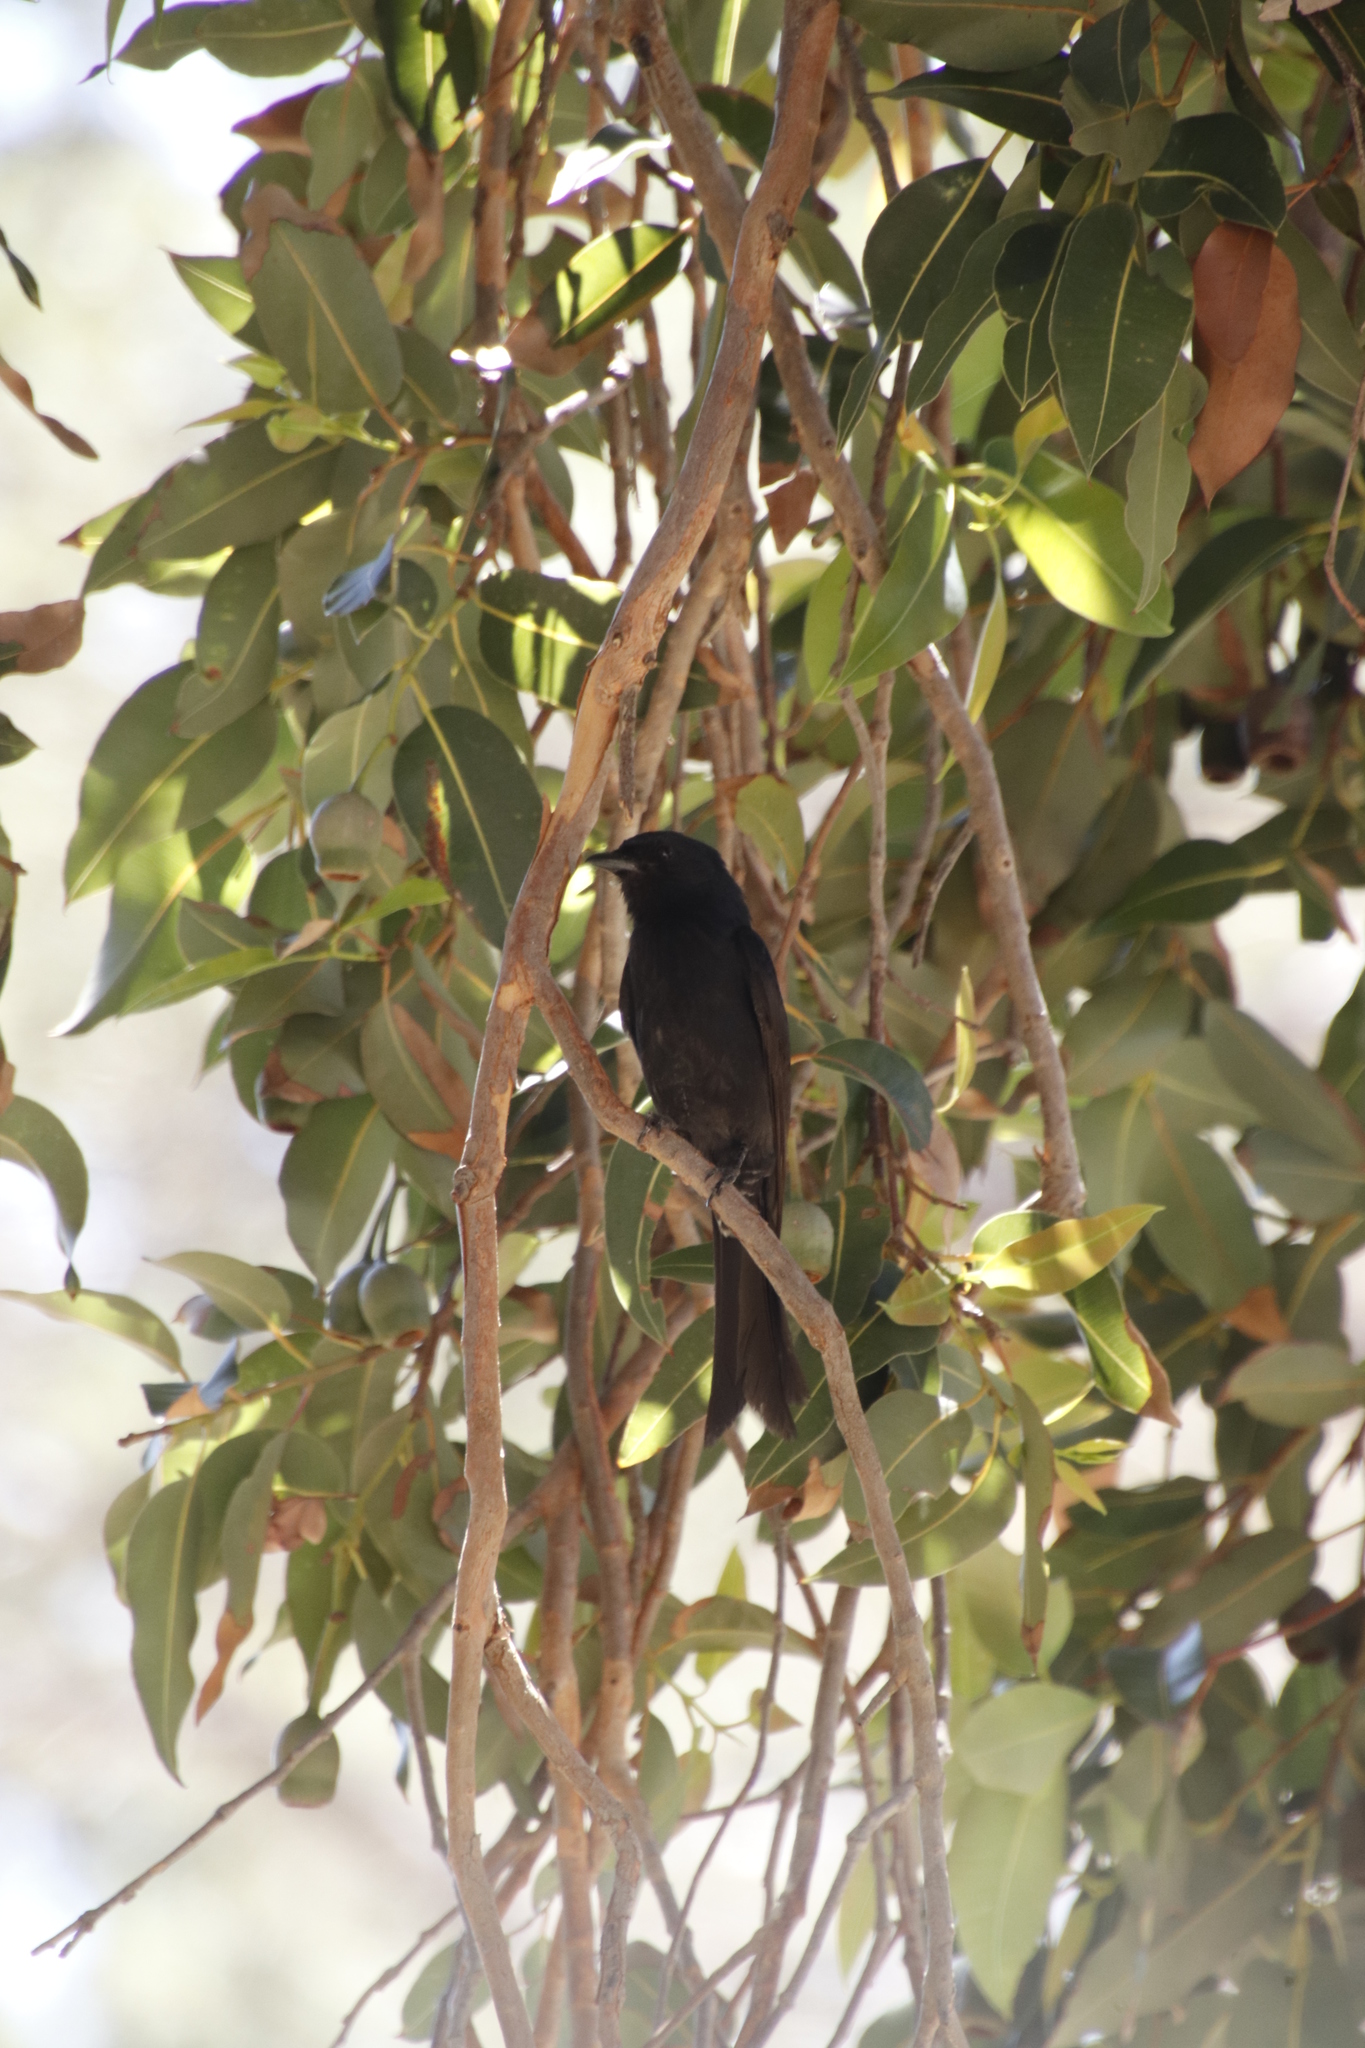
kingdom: Animalia
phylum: Chordata
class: Aves
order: Passeriformes
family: Dicruridae
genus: Dicrurus
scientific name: Dicrurus adsimilis
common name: Fork-tailed drongo
